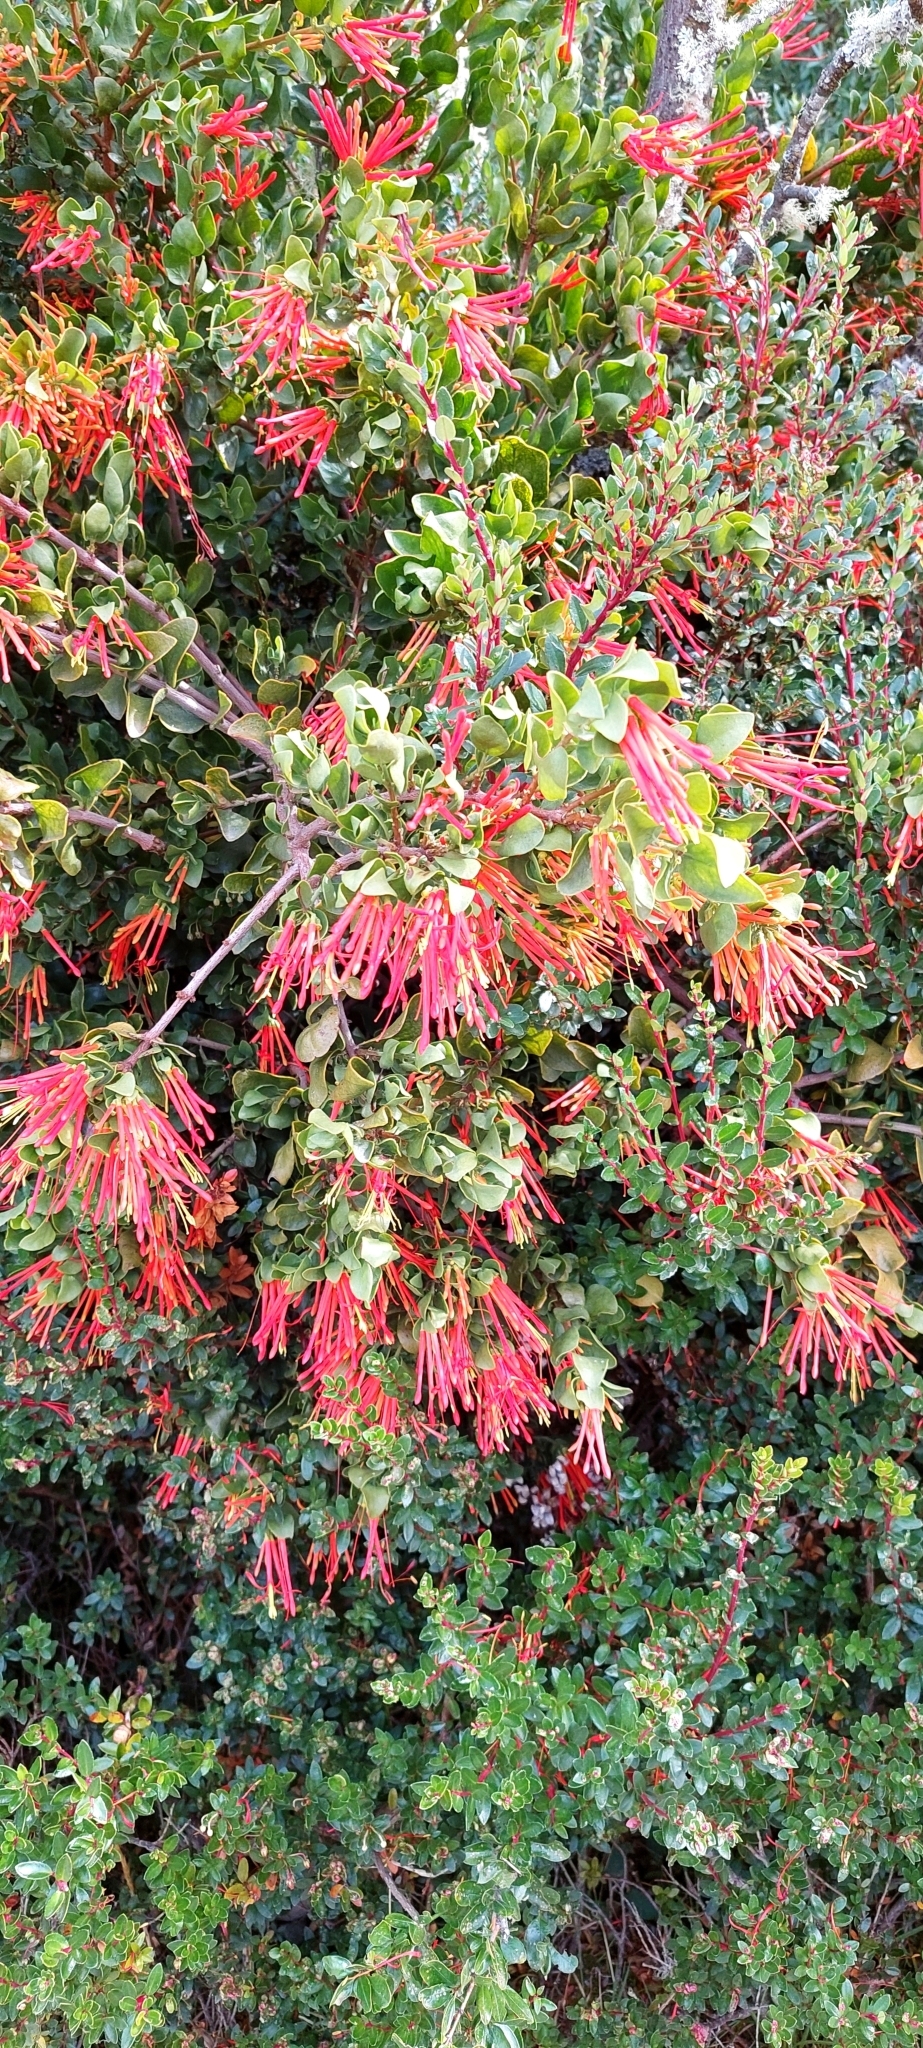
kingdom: Plantae
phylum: Tracheophyta
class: Magnoliopsida
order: Proteales
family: Proteaceae
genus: Embothrium
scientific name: Embothrium coccineum
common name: Chilean firebush
